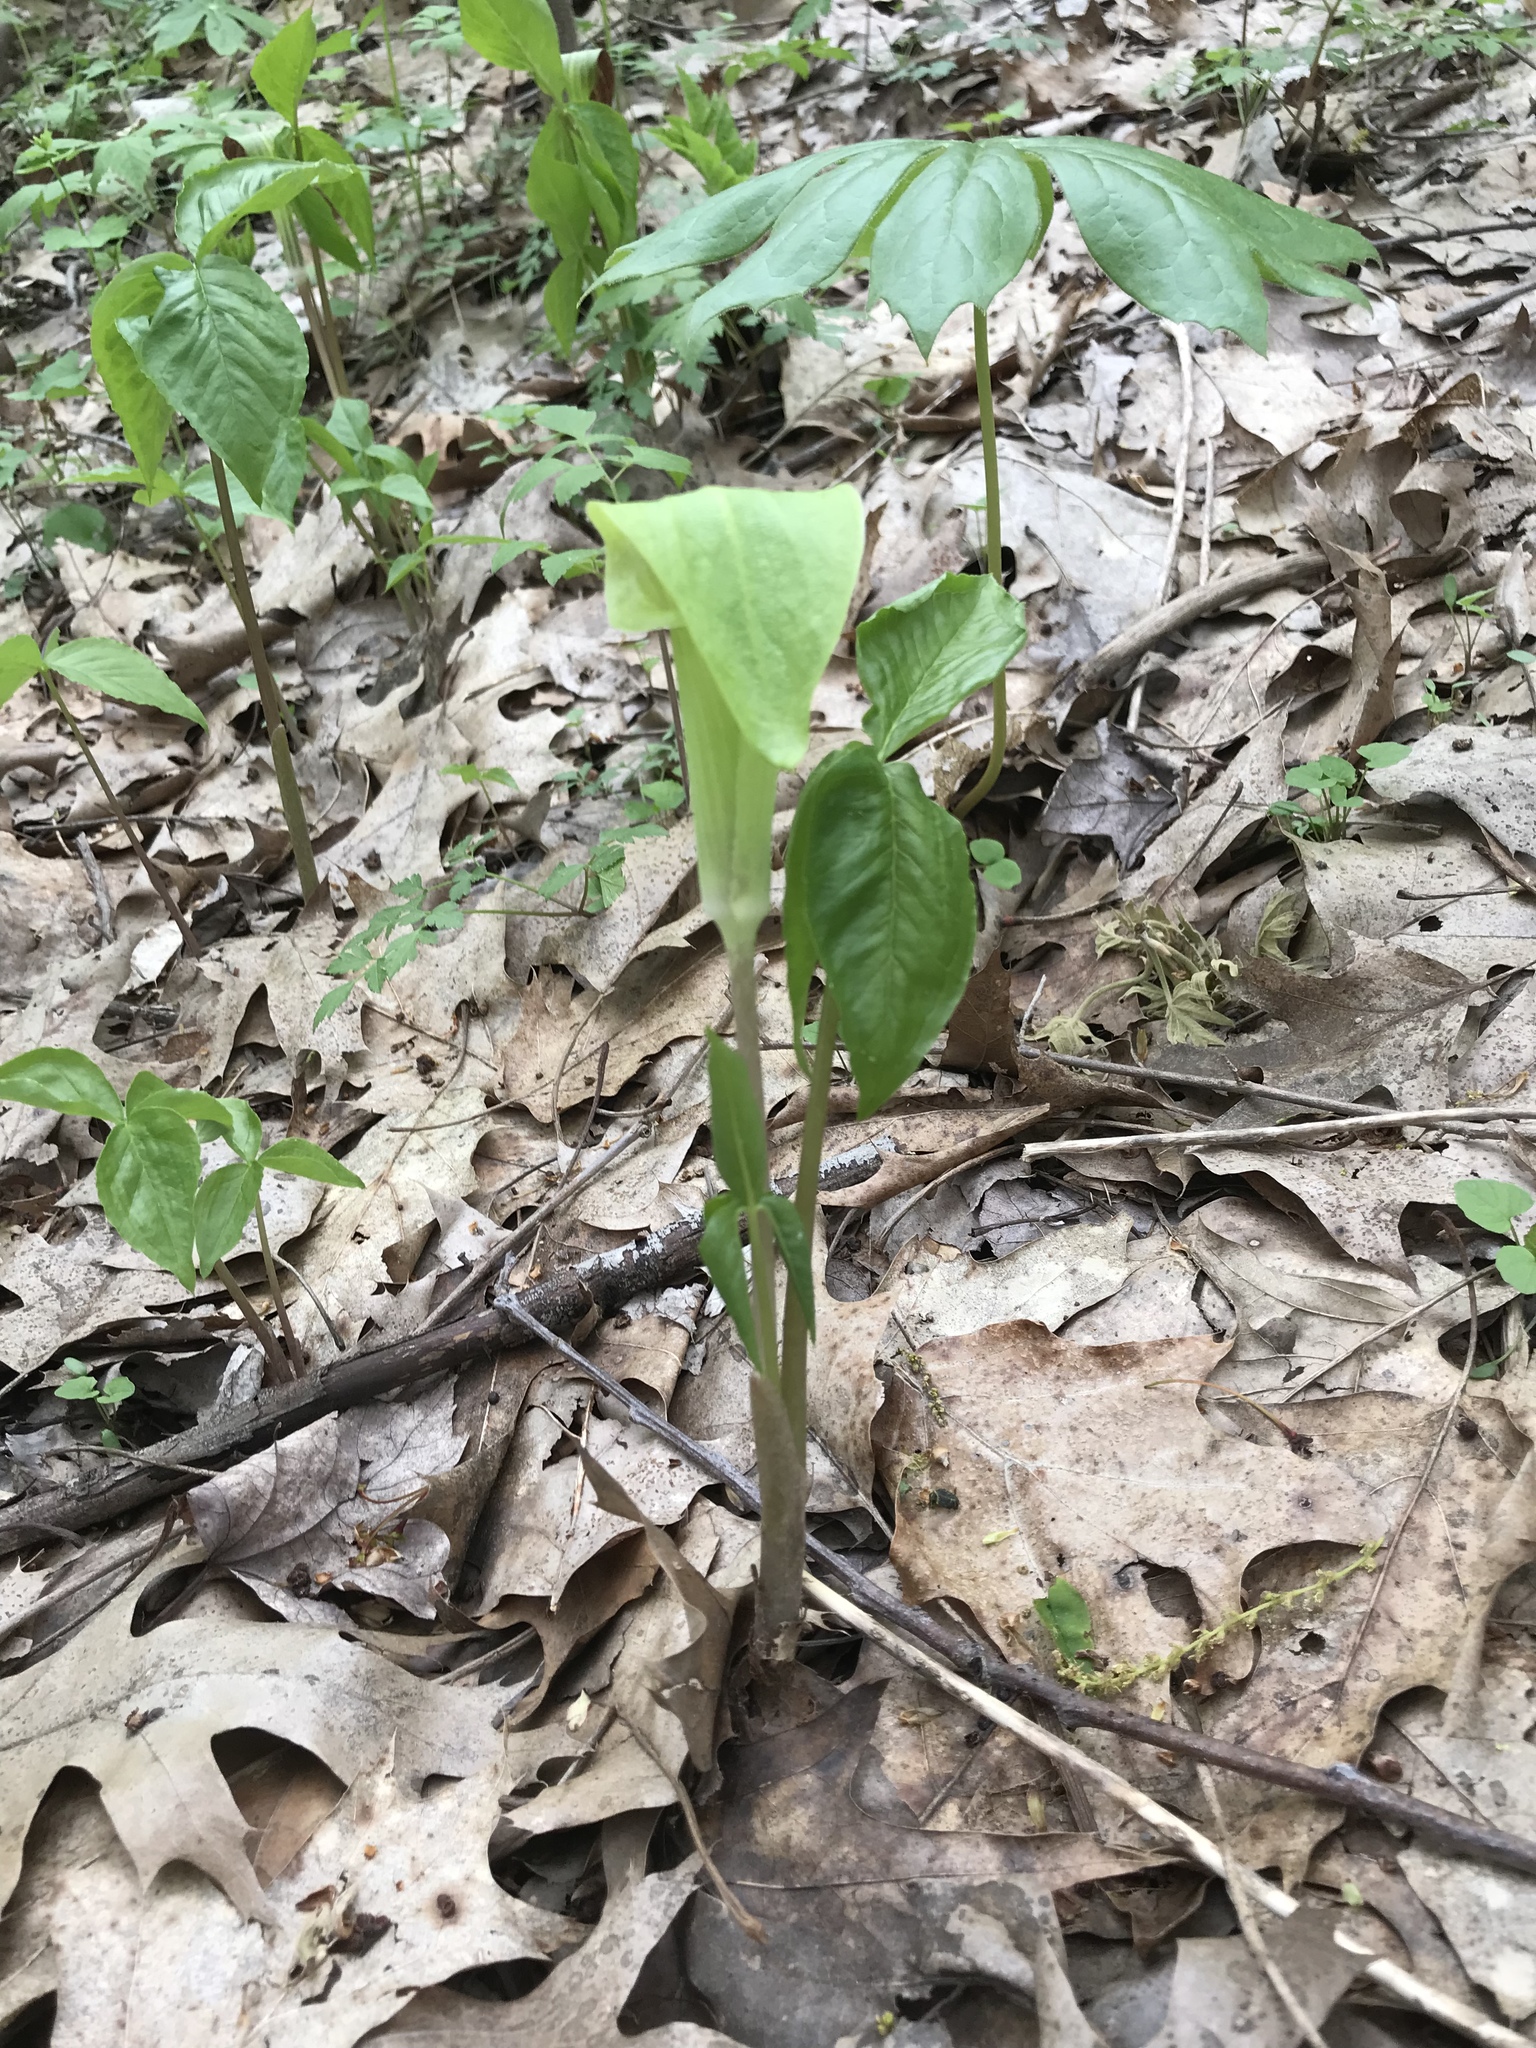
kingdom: Plantae
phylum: Tracheophyta
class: Liliopsida
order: Alismatales
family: Araceae
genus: Arisaema
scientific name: Arisaema triphyllum
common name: Jack-in-the-pulpit
